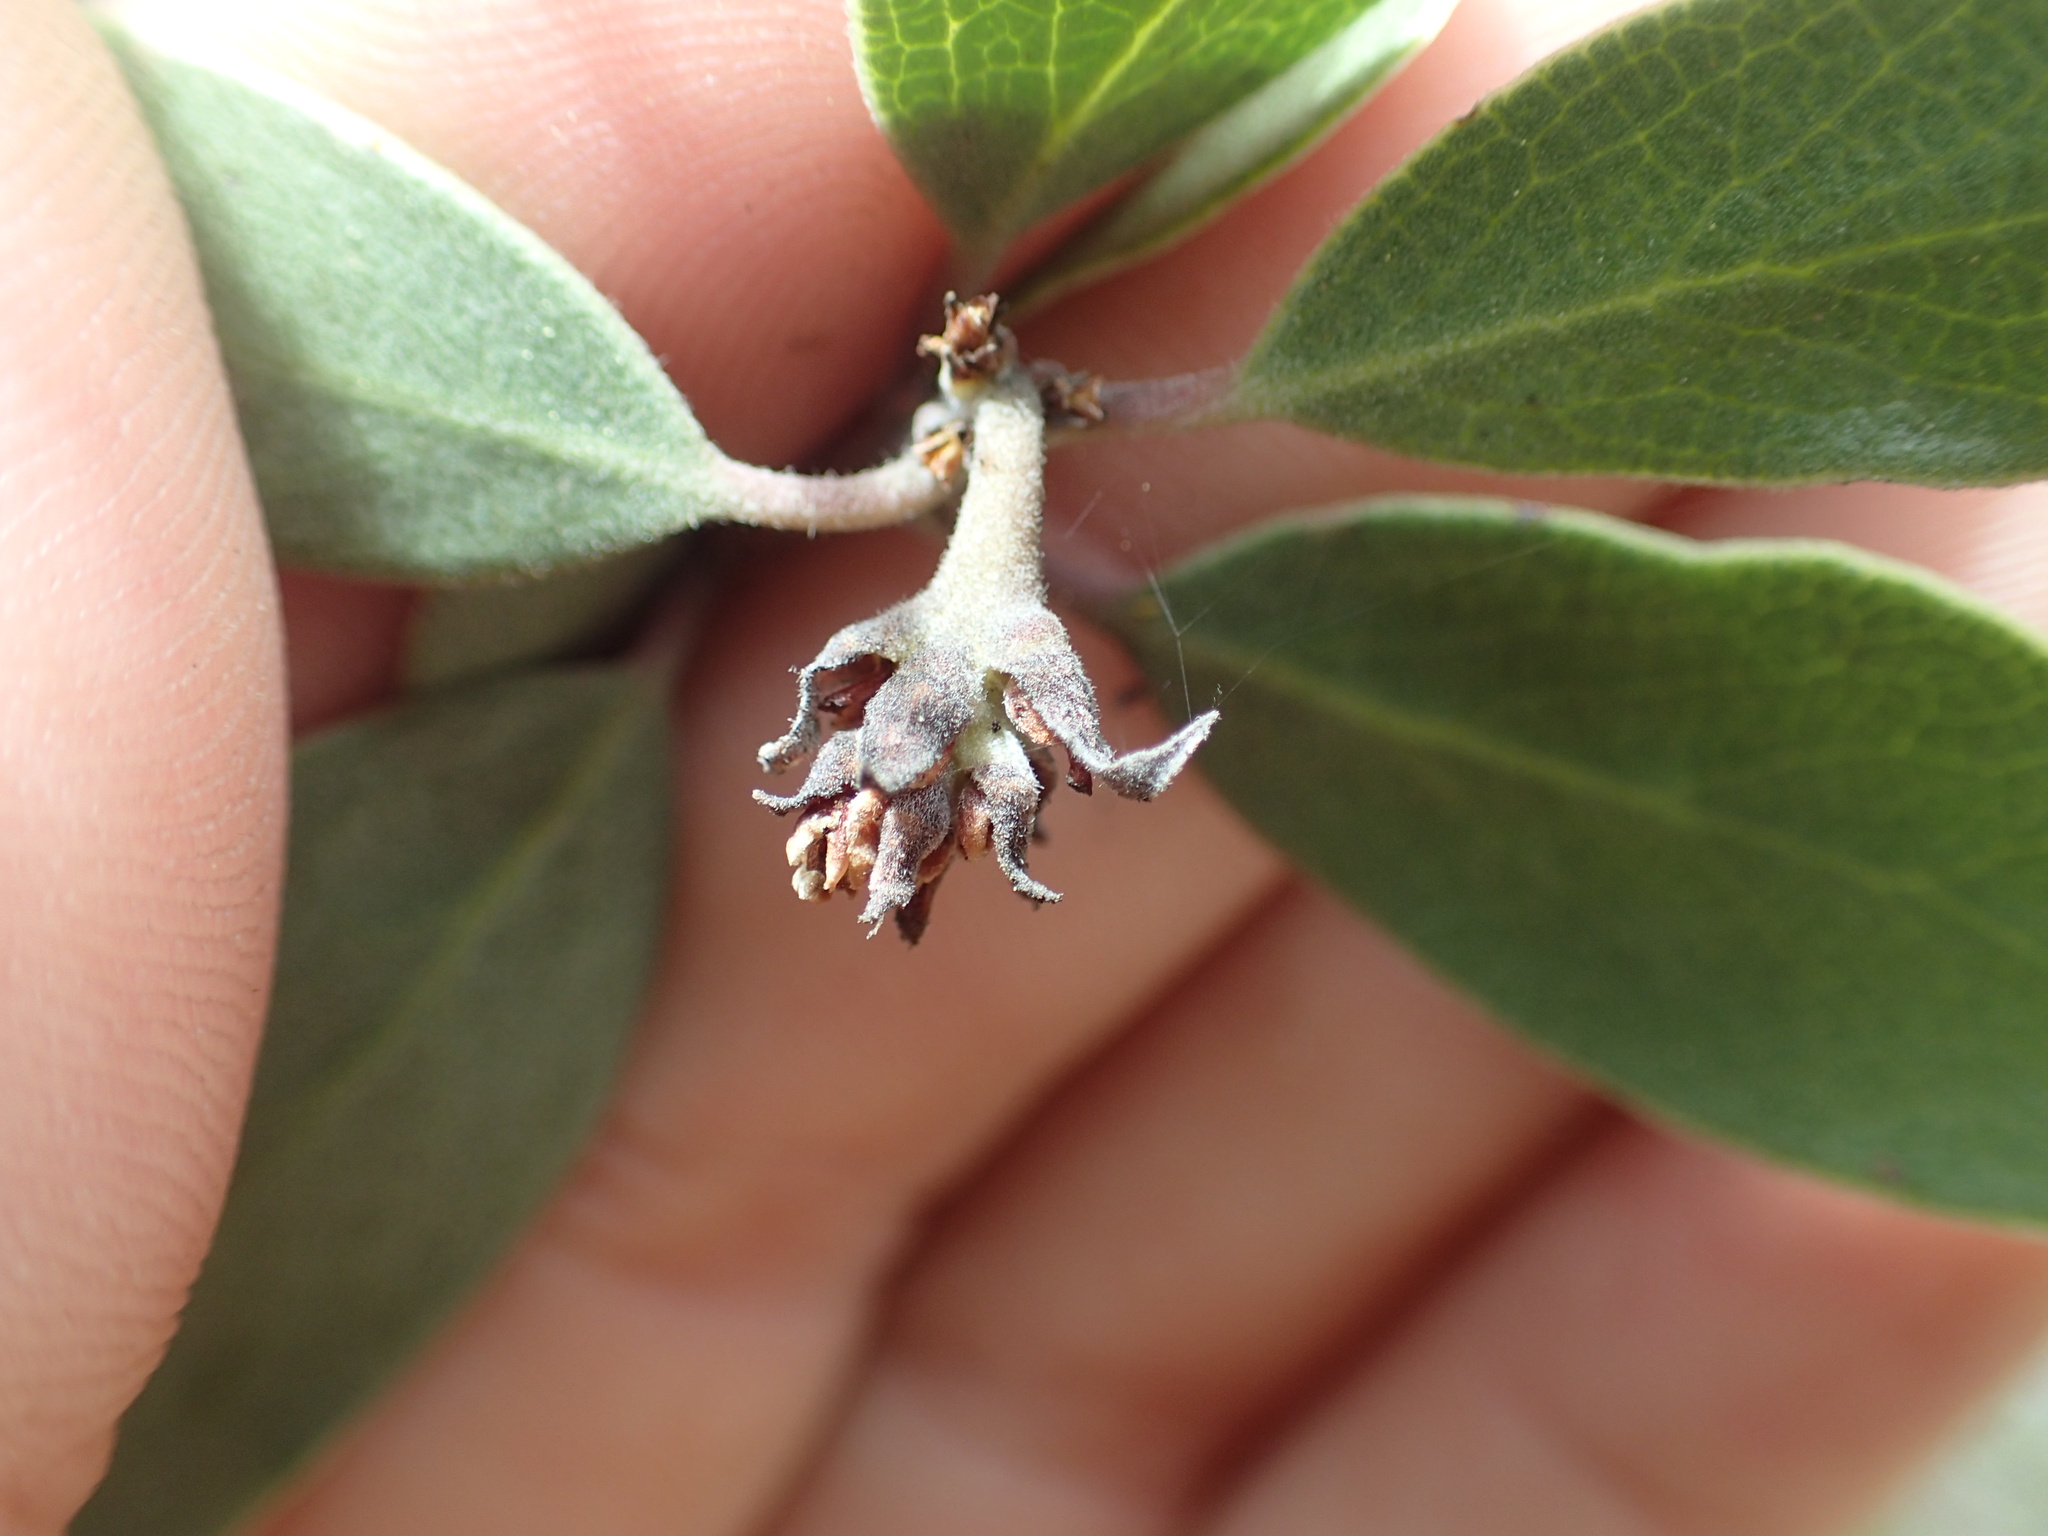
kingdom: Plantae
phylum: Tracheophyta
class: Magnoliopsida
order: Ericales
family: Ericaceae
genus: Arctostaphylos
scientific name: Arctostaphylos pungens
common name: Mexican manzanita
